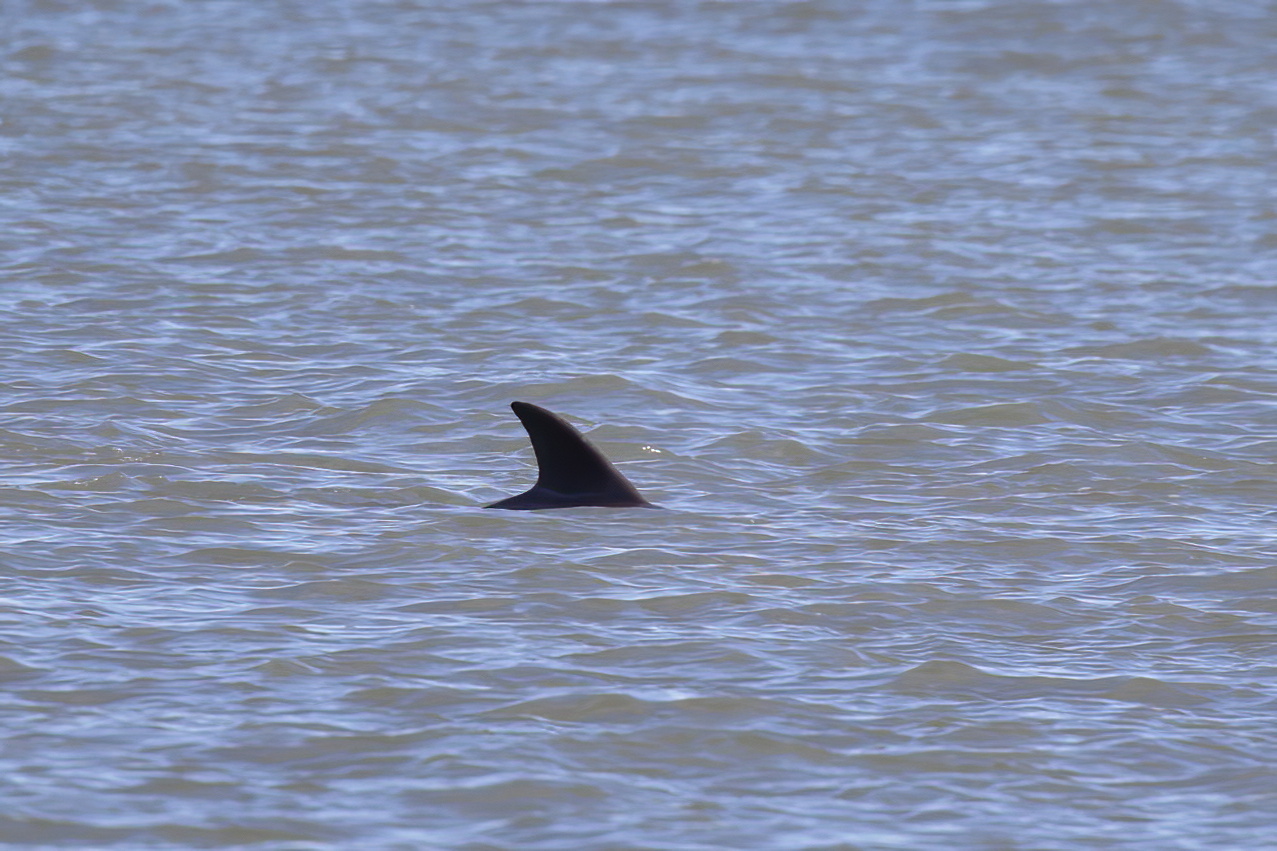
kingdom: Animalia
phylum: Chordata
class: Mammalia
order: Cetacea
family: Delphinidae
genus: Tursiops
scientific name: Tursiops truncatus
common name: Bottlenose dolphin
